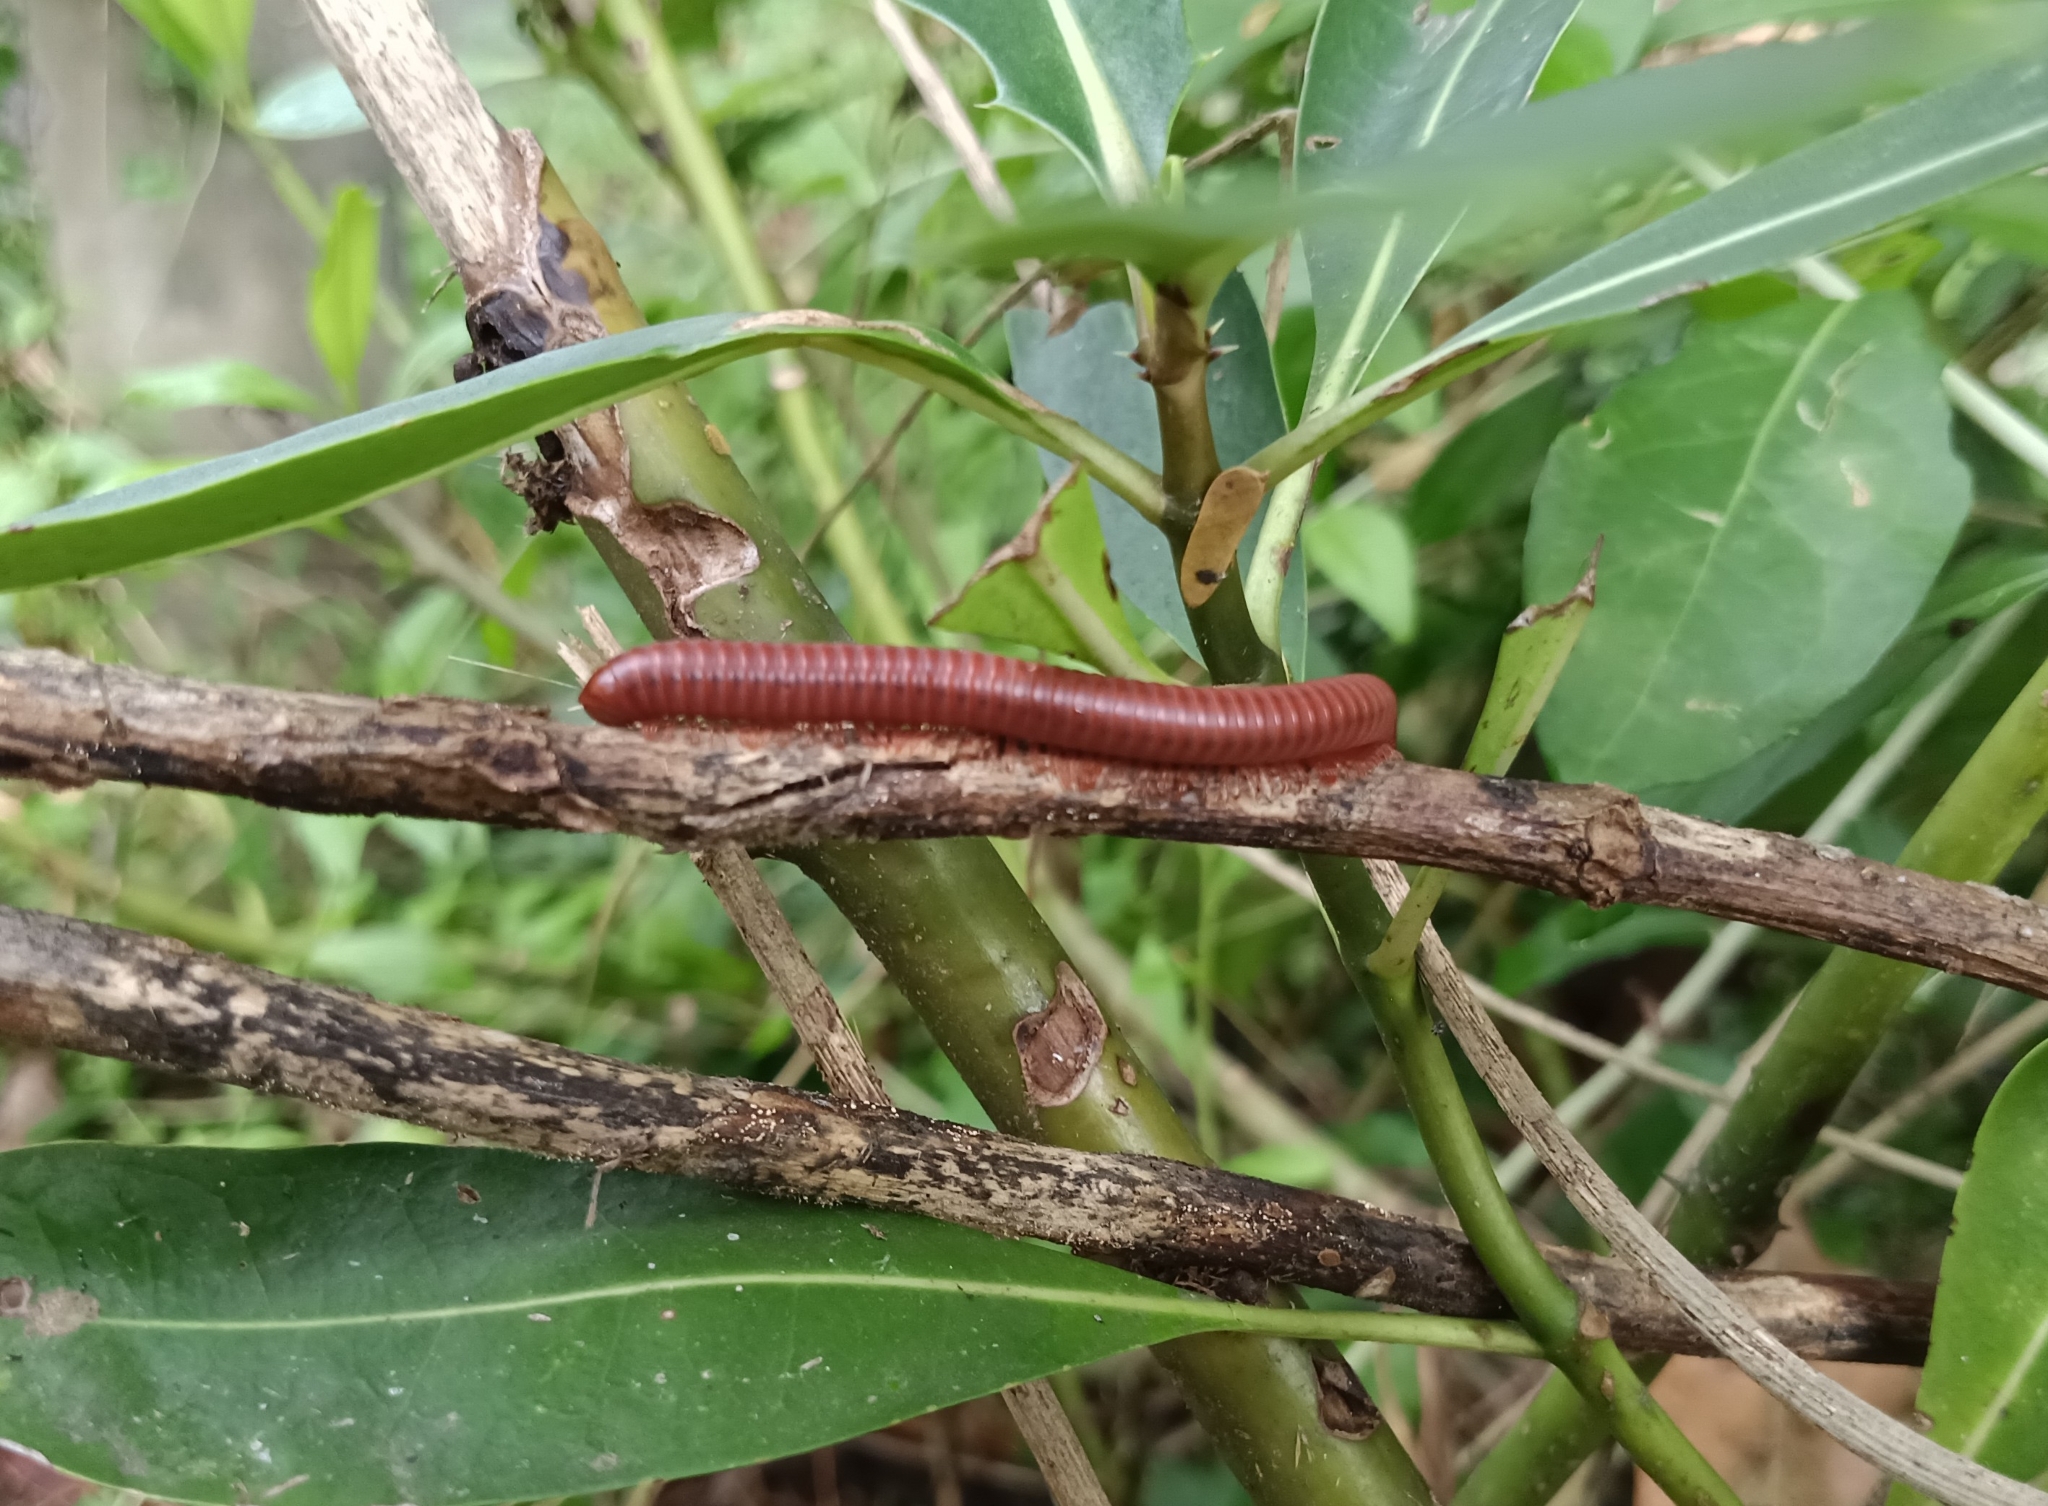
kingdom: Animalia
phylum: Arthropoda
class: Diplopoda
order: Spirobolida
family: Pachybolidae
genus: Trigoniulus
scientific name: Trigoniulus corallinus
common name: Millipede
